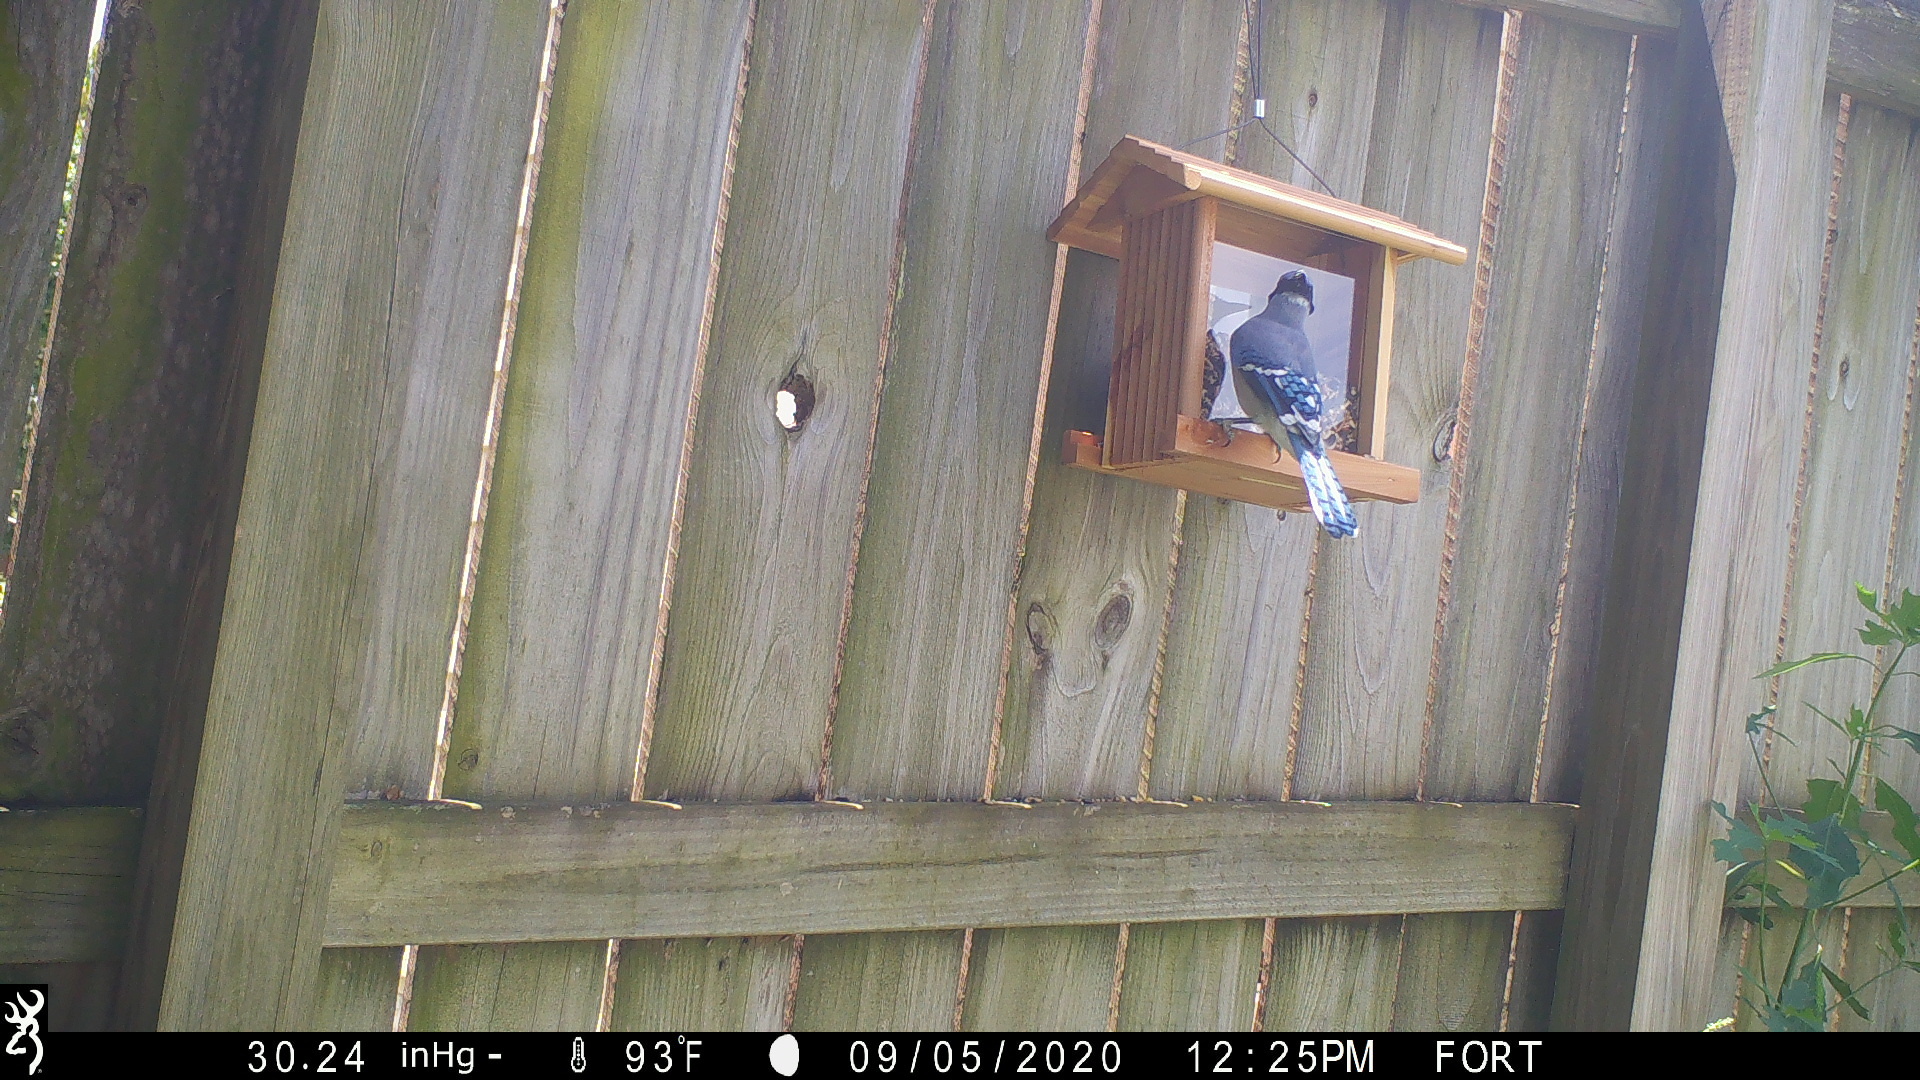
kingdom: Animalia
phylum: Chordata
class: Aves
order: Passeriformes
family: Corvidae
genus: Cyanocitta
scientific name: Cyanocitta cristata
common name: Blue jay
